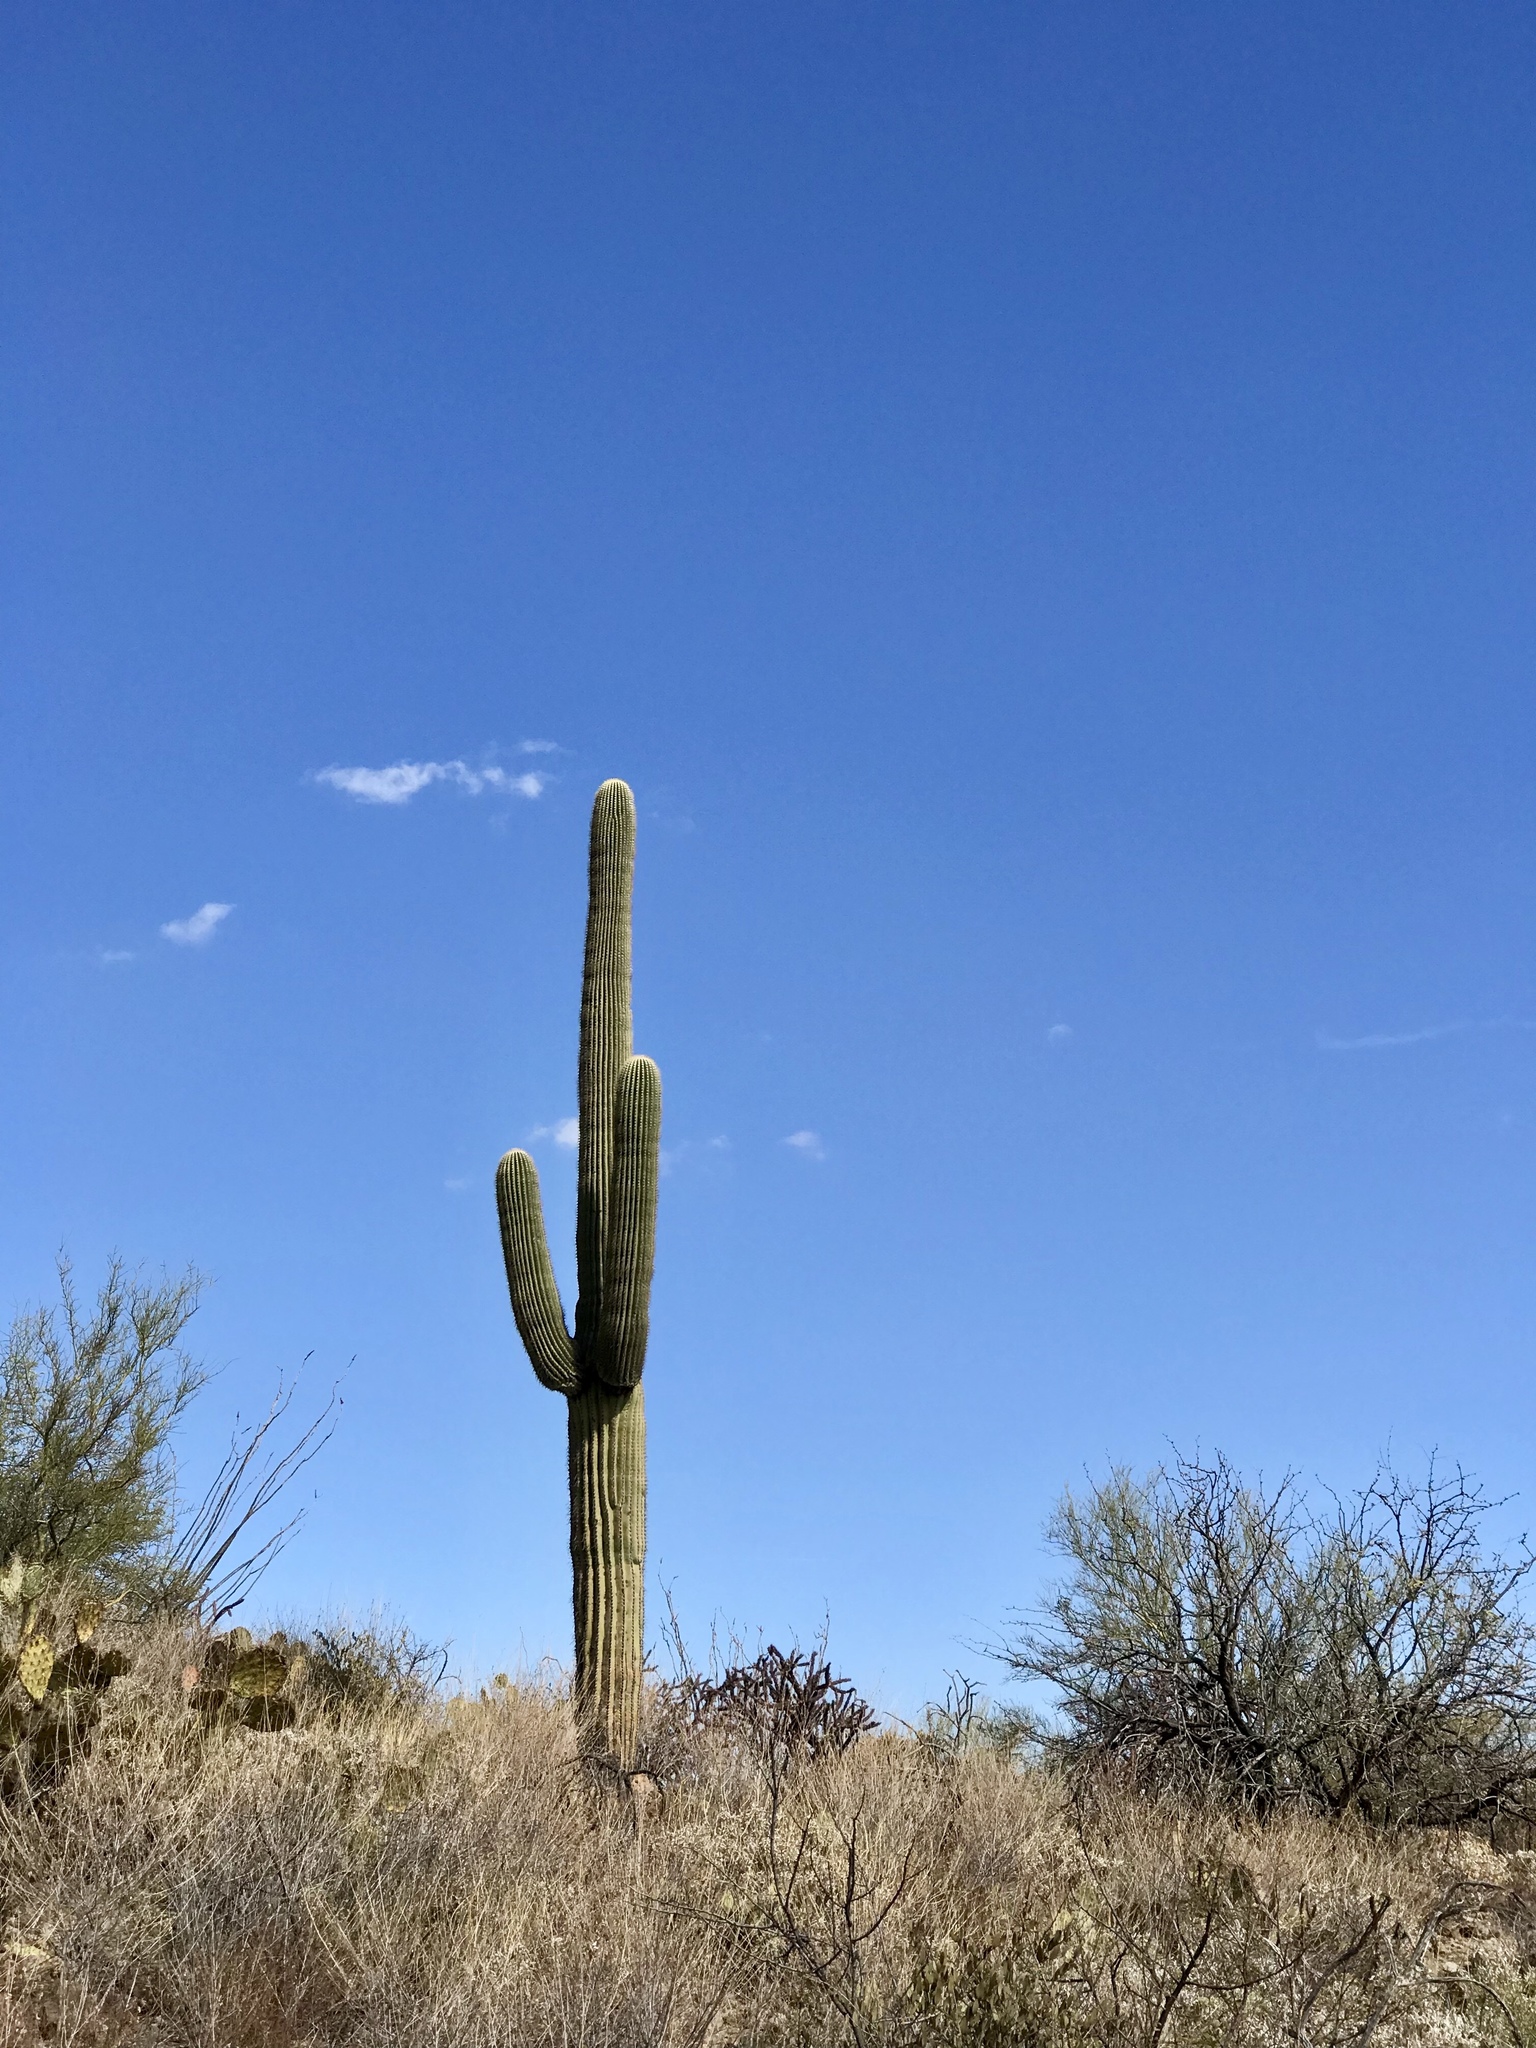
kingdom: Plantae
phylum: Tracheophyta
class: Magnoliopsida
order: Caryophyllales
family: Cactaceae
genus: Carnegiea
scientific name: Carnegiea gigantea
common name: Saguaro
